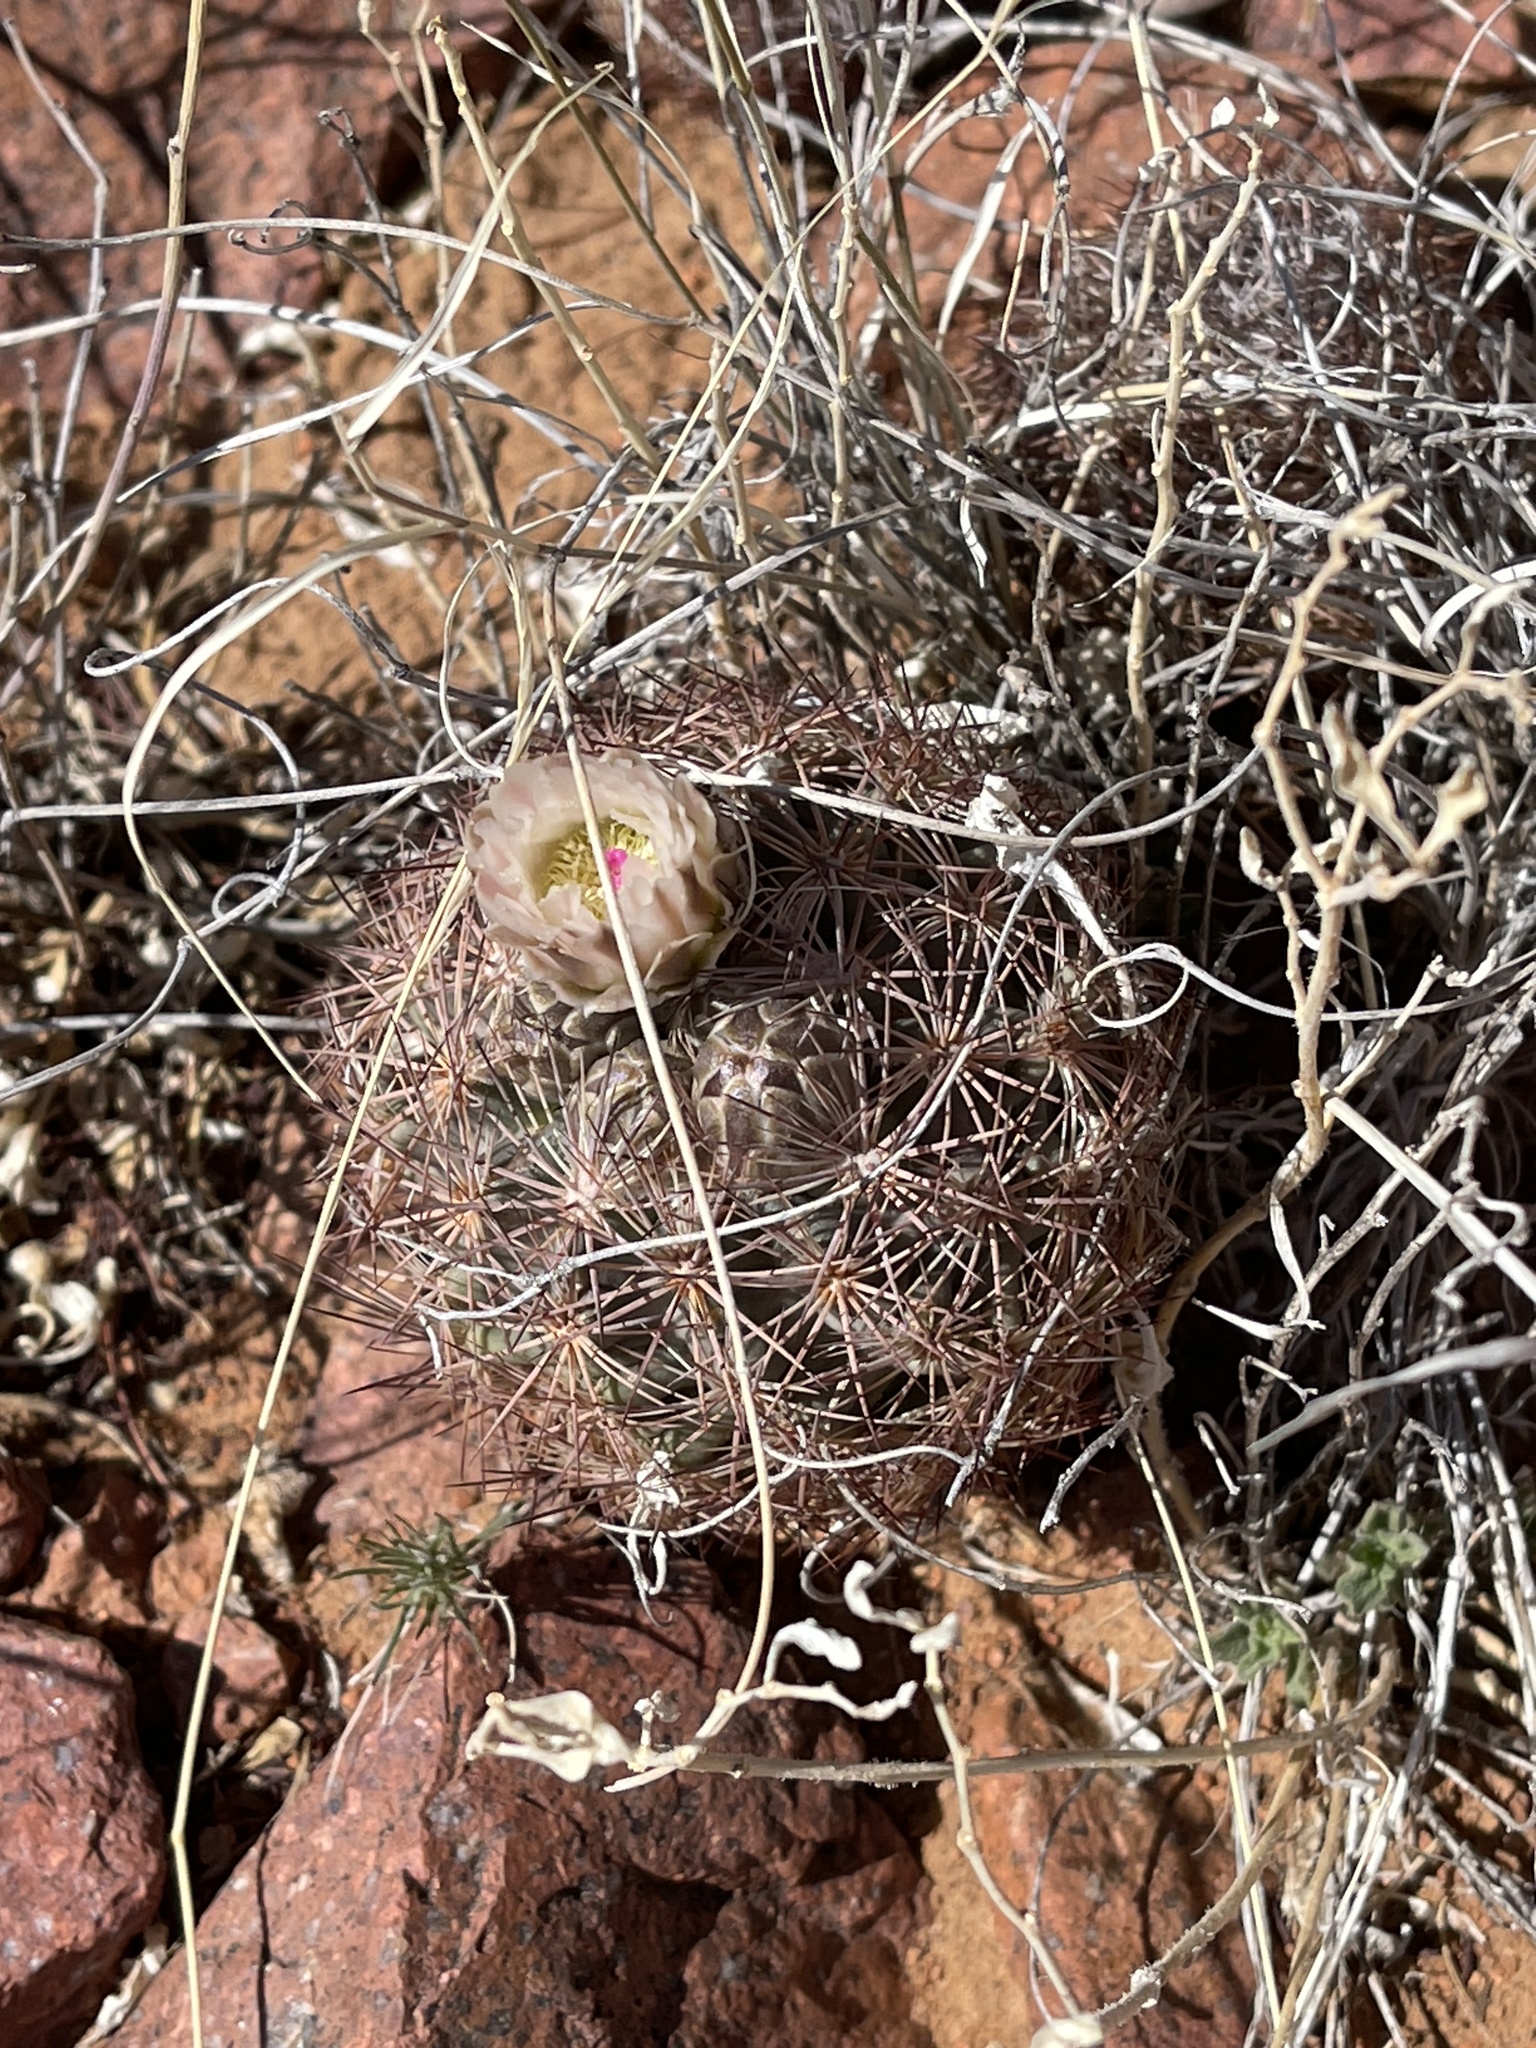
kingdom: Plantae
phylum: Tracheophyta
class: Magnoliopsida
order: Caryophyllales
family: Cactaceae
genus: Sclerocactus
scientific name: Sclerocactus intertextus
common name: White fish-hook cactus
